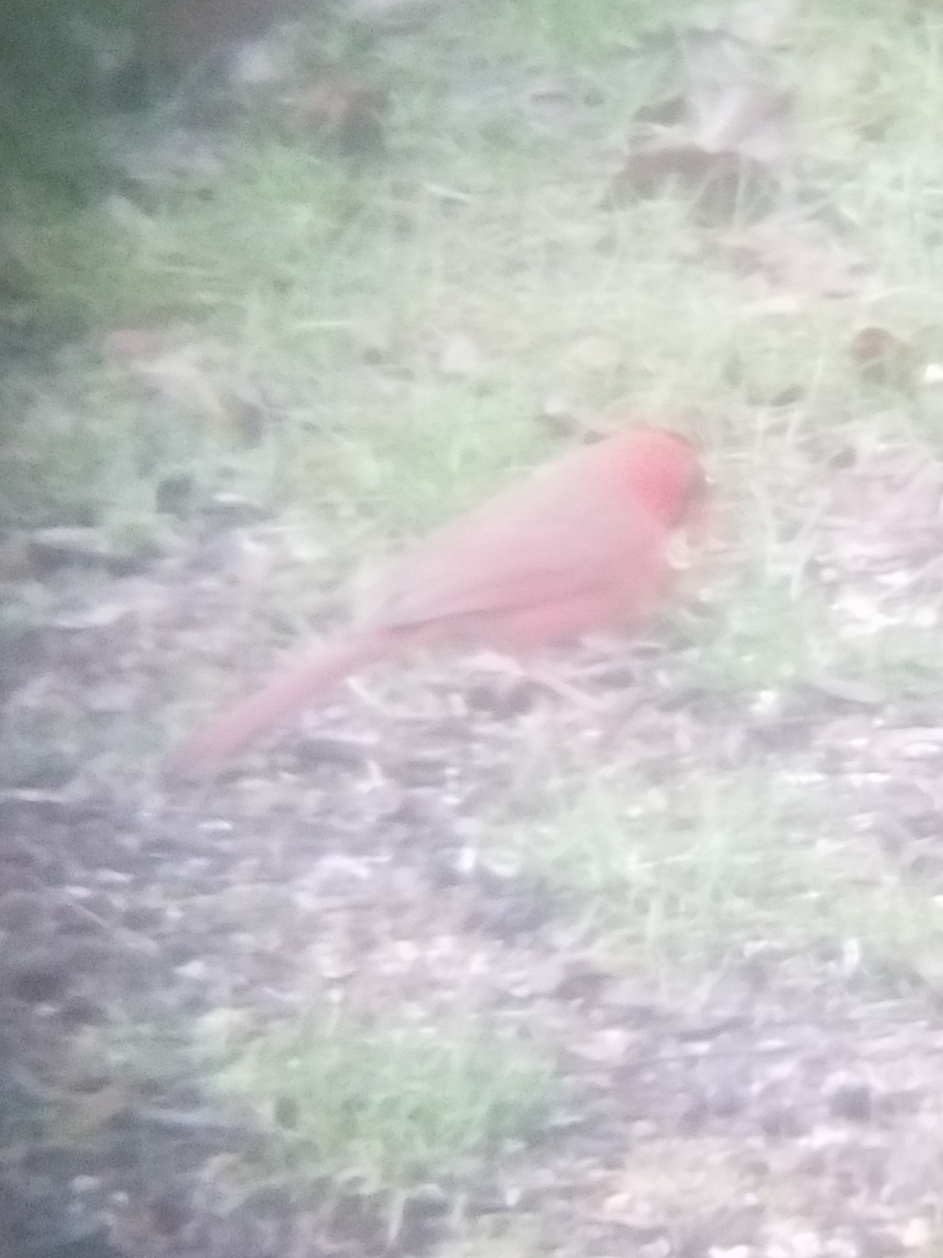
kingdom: Animalia
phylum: Chordata
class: Aves
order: Passeriformes
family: Cardinalidae
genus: Cardinalis
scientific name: Cardinalis cardinalis
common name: Northern cardinal
